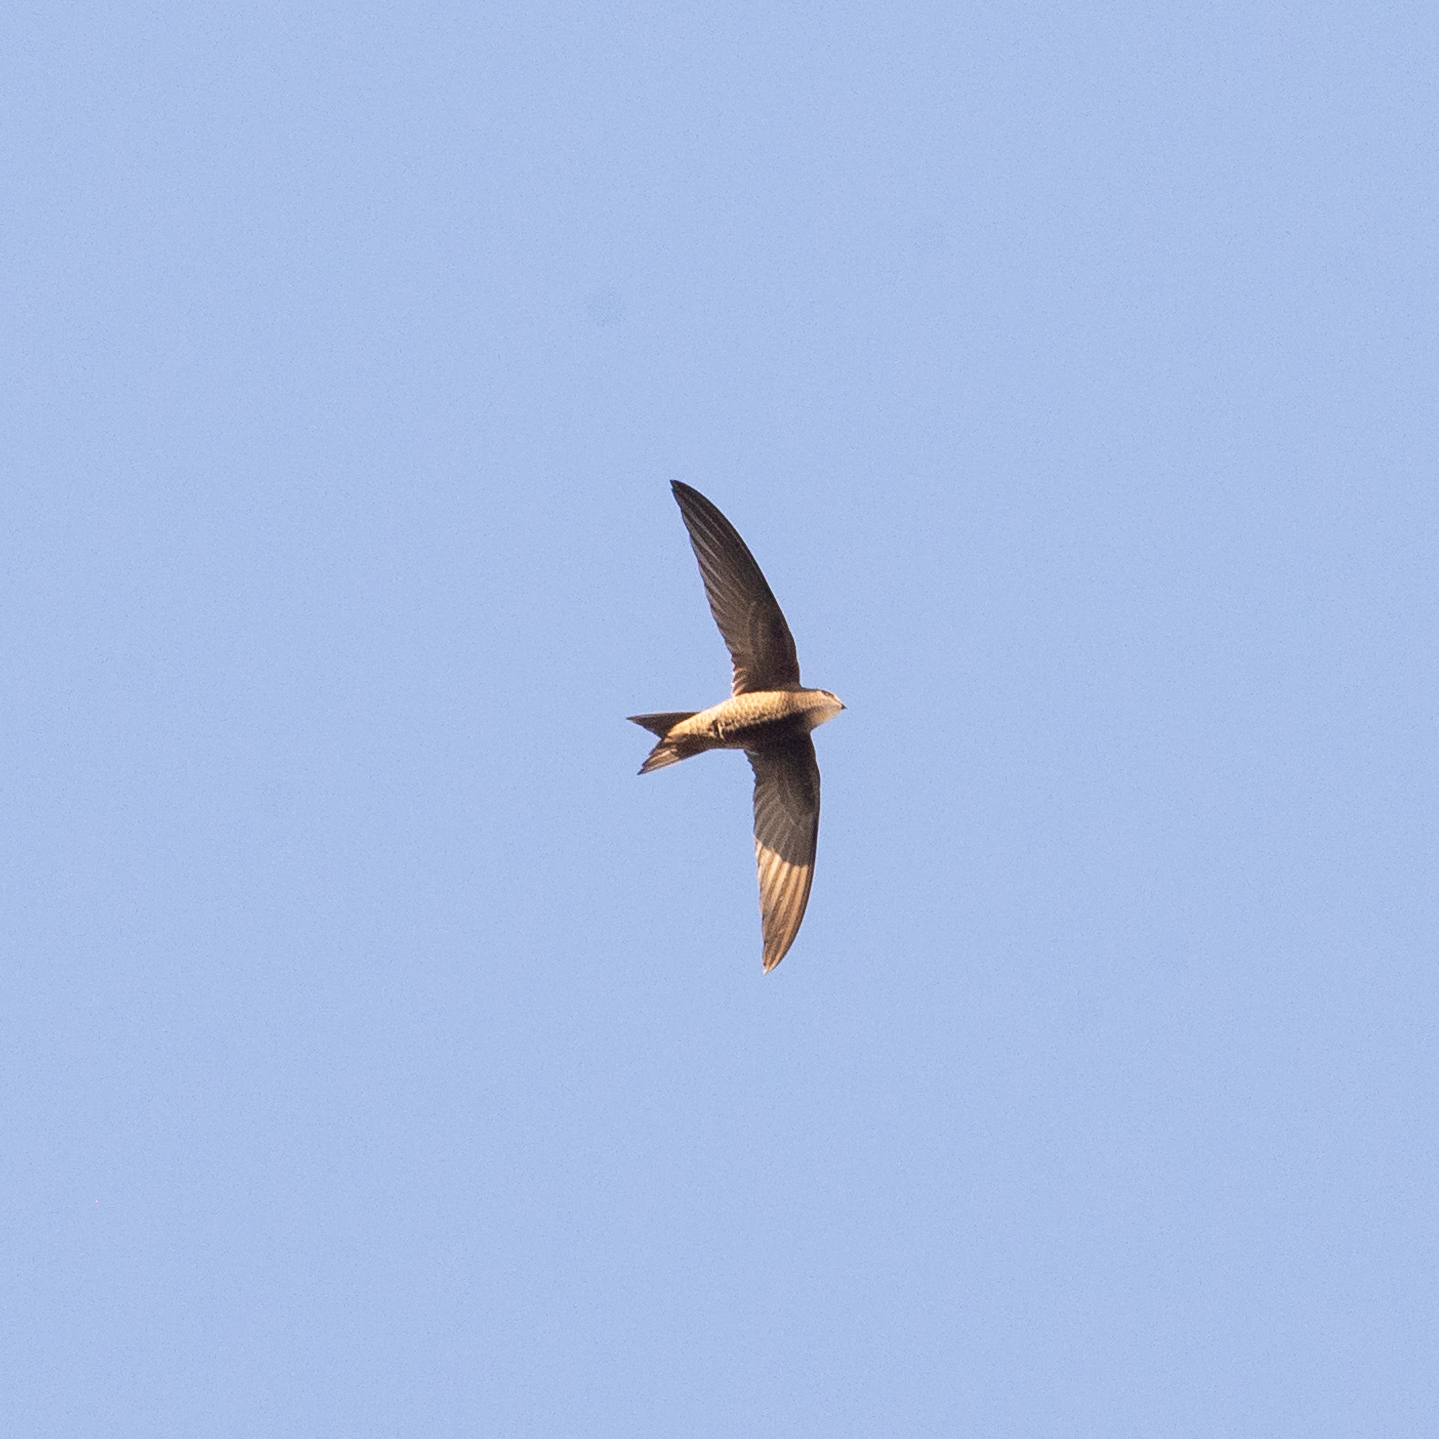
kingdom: Animalia
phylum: Chordata
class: Aves
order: Apodiformes
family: Apodidae
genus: Apus
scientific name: Apus pallidus
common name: Pallid swift
